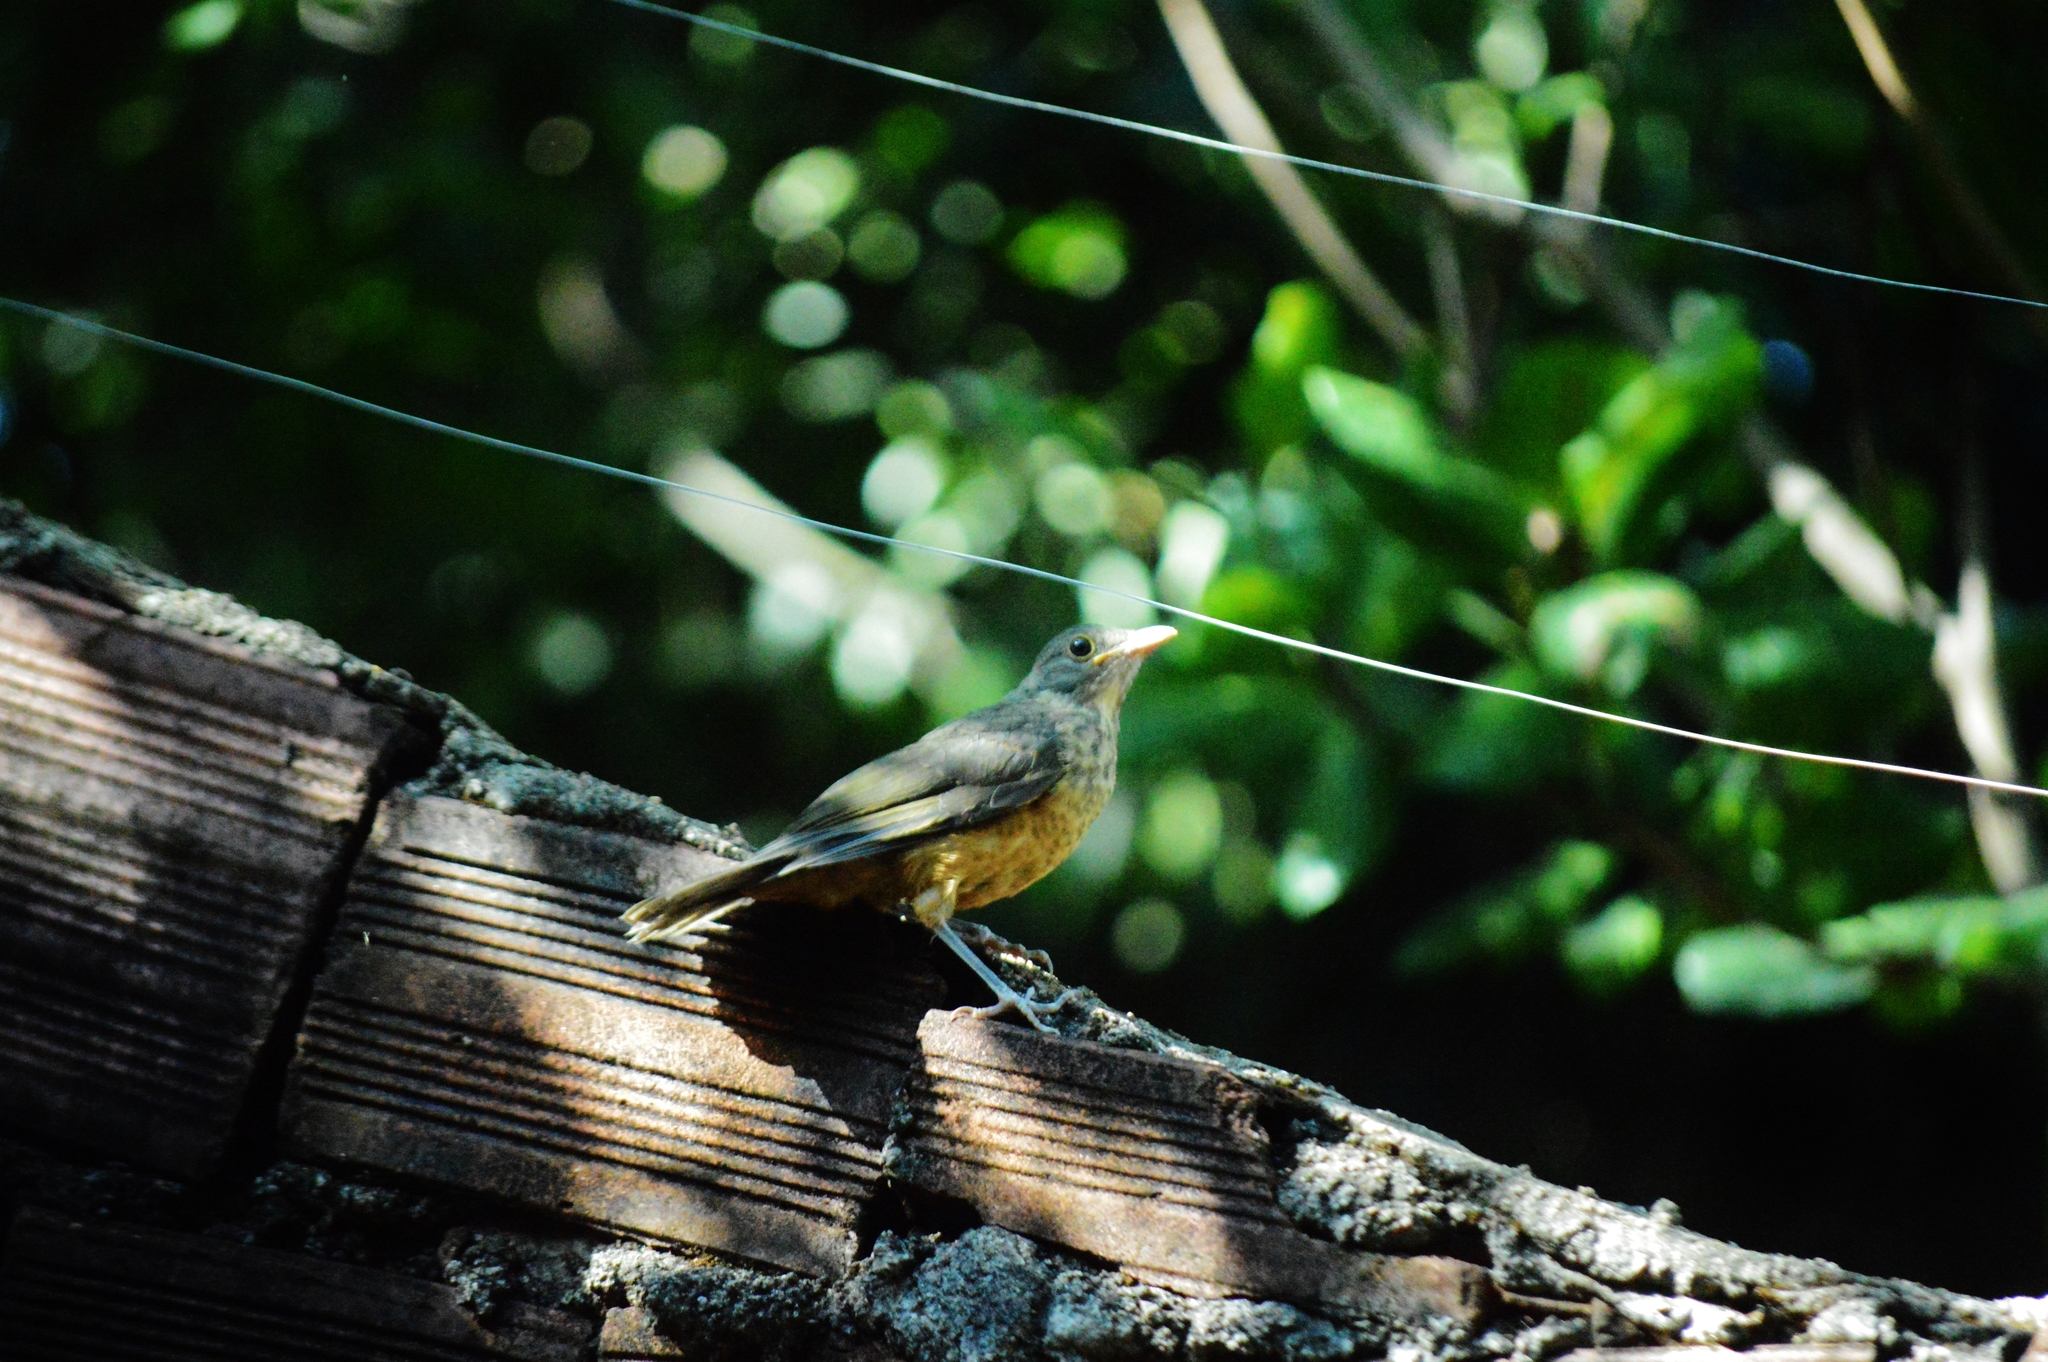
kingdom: Animalia
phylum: Chordata
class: Aves
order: Passeriformes
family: Turdidae
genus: Turdus
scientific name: Turdus rufiventris
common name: Rufous-bellied thrush
